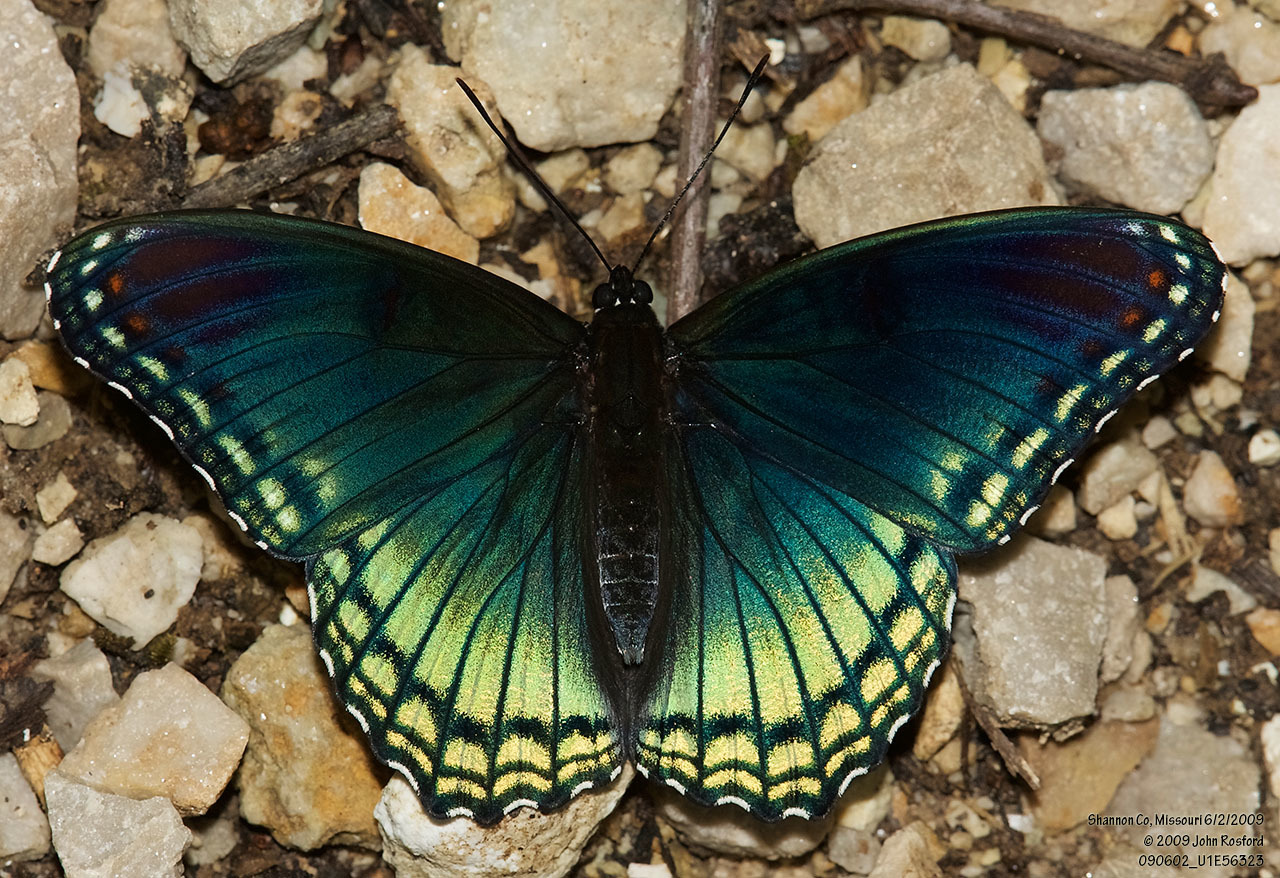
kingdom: Animalia
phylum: Arthropoda
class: Insecta
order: Lepidoptera
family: Nymphalidae
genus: Limenitis
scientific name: Limenitis arthemis
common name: Red-spotted admiral
